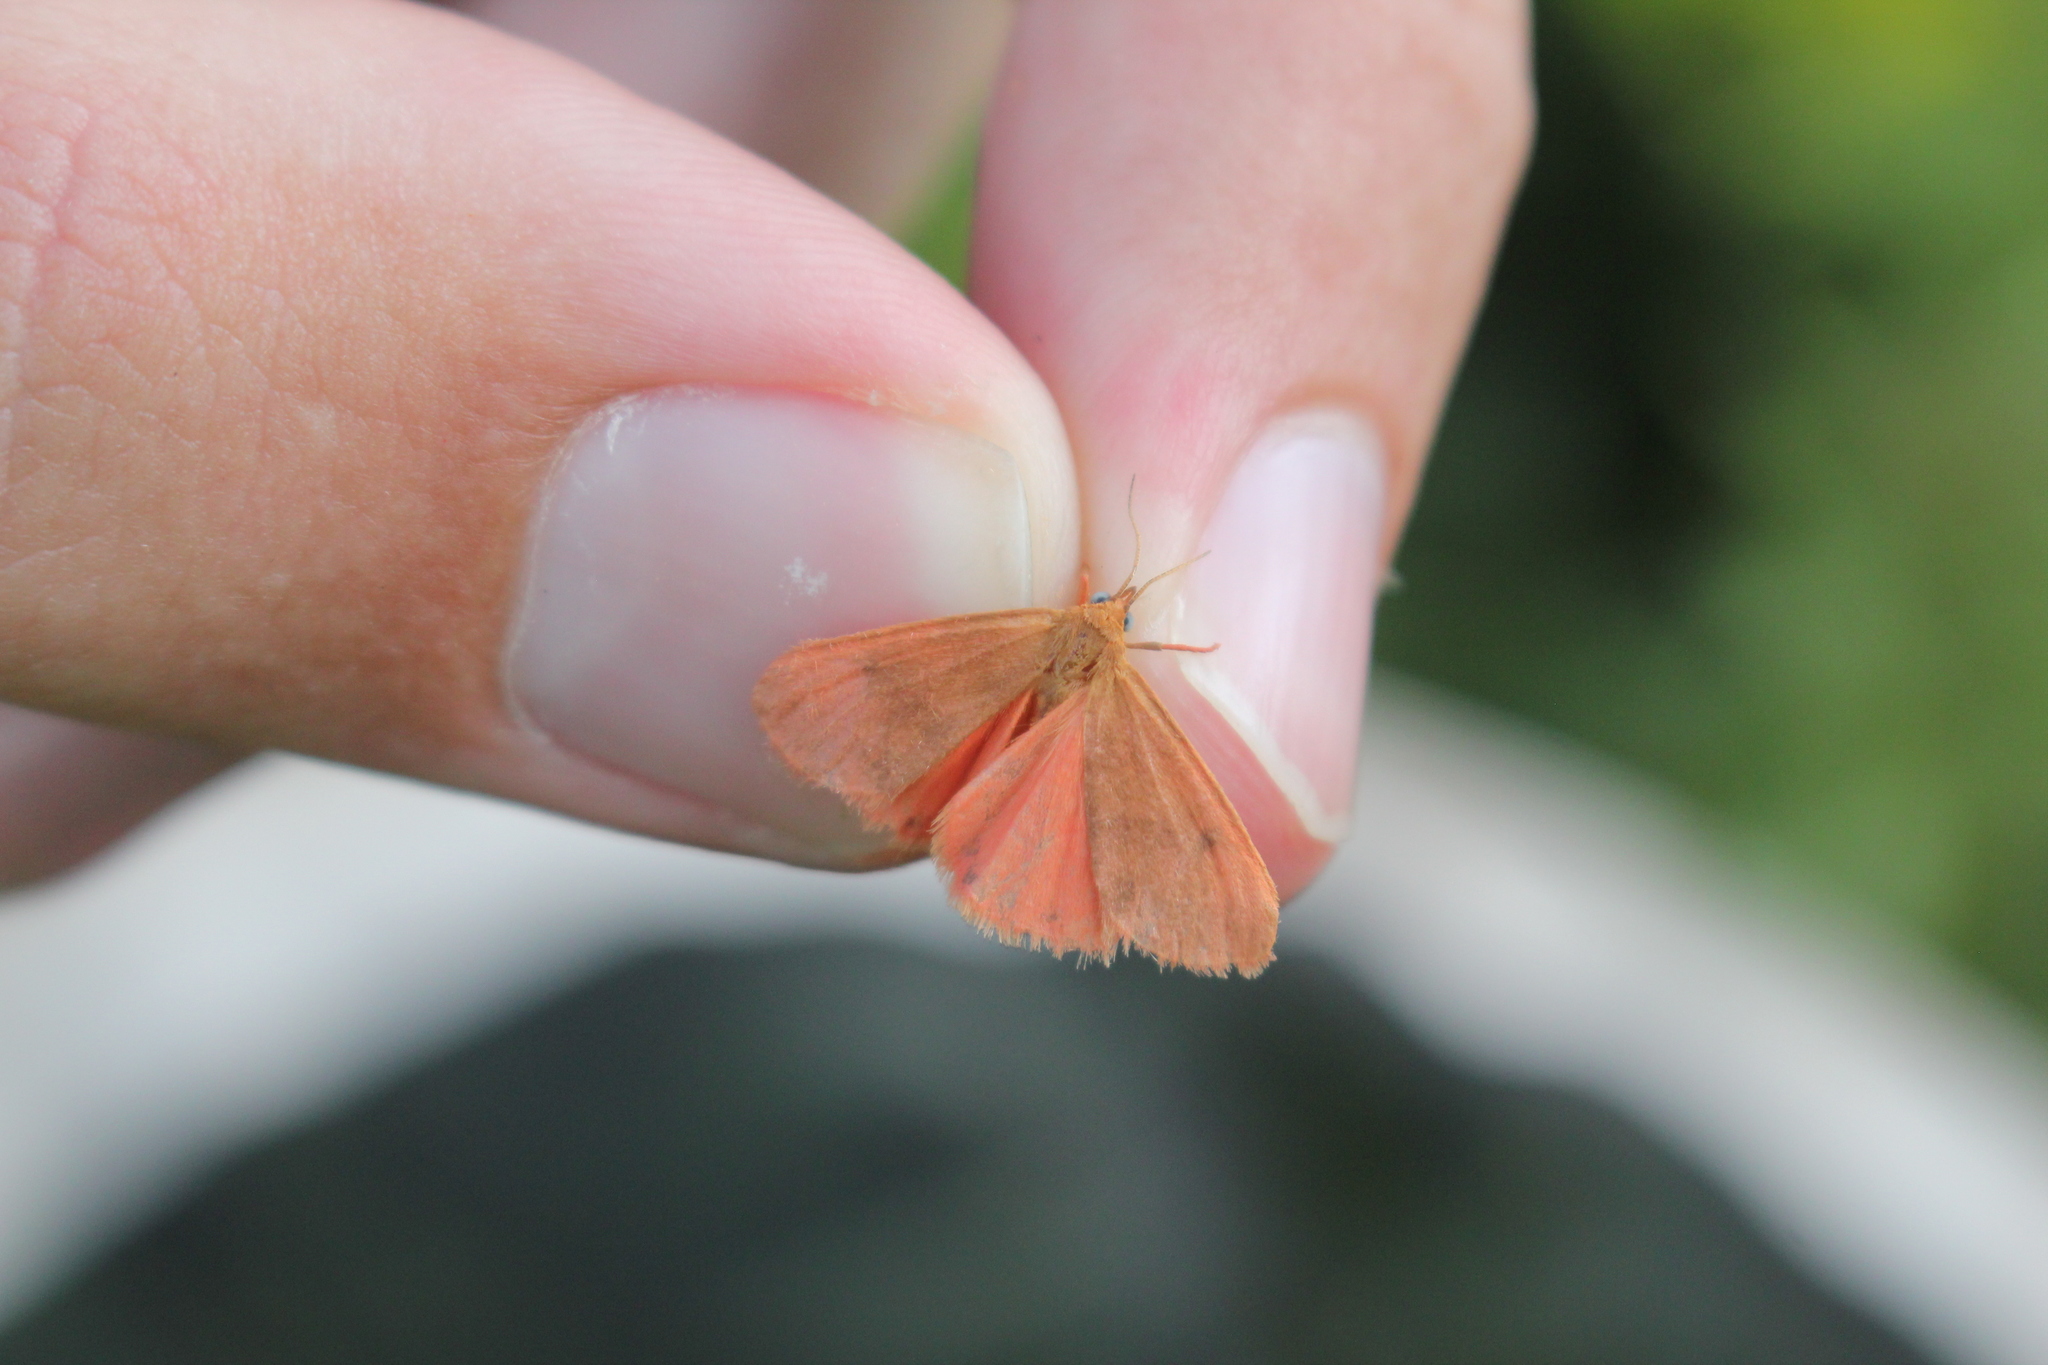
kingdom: Animalia
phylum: Arthropoda
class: Insecta
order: Lepidoptera
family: Erebidae
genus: Virbia
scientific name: Virbia immaculata
